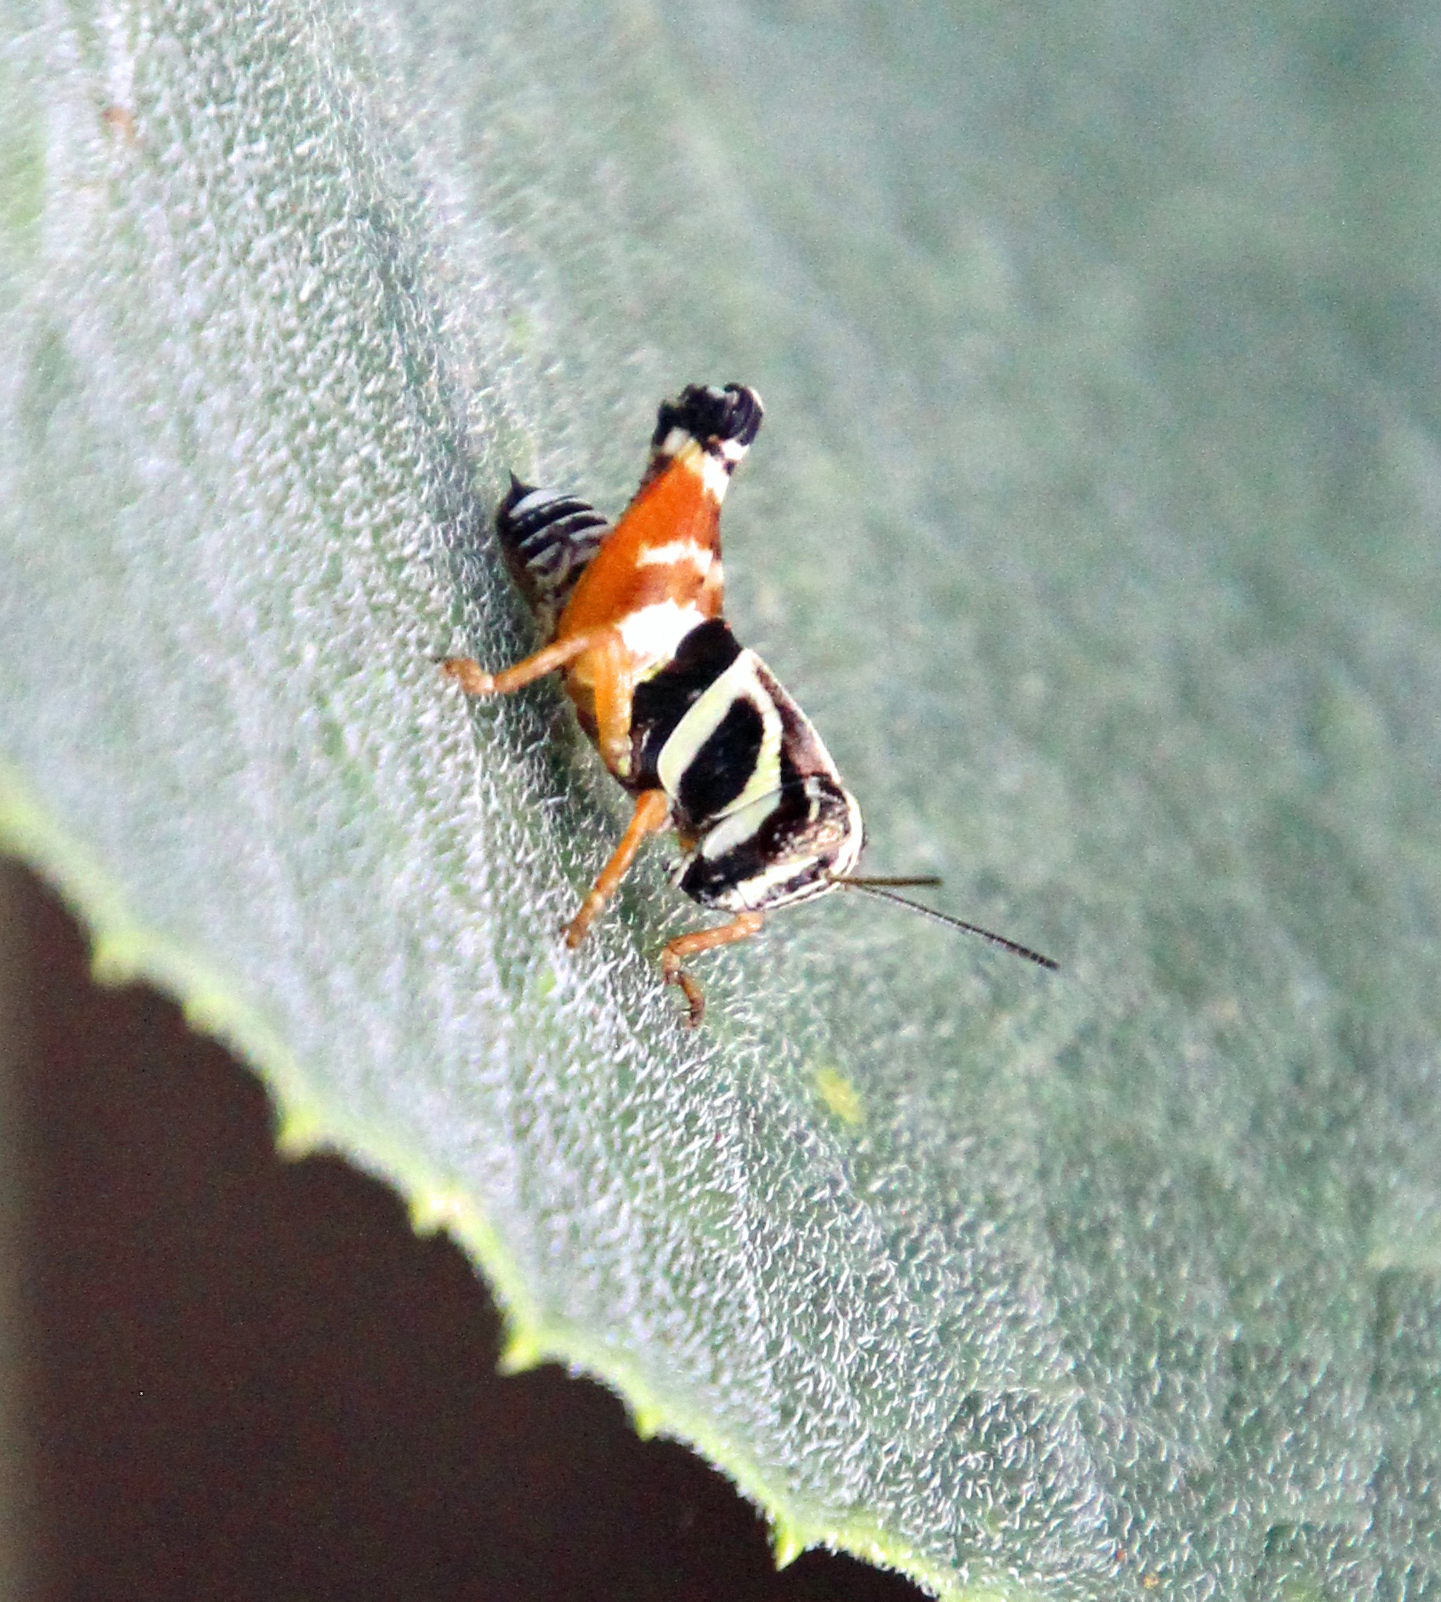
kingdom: Animalia
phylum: Arthropoda
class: Insecta
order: Orthoptera
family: Acrididae
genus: Aidemona
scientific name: Aidemona azteca
